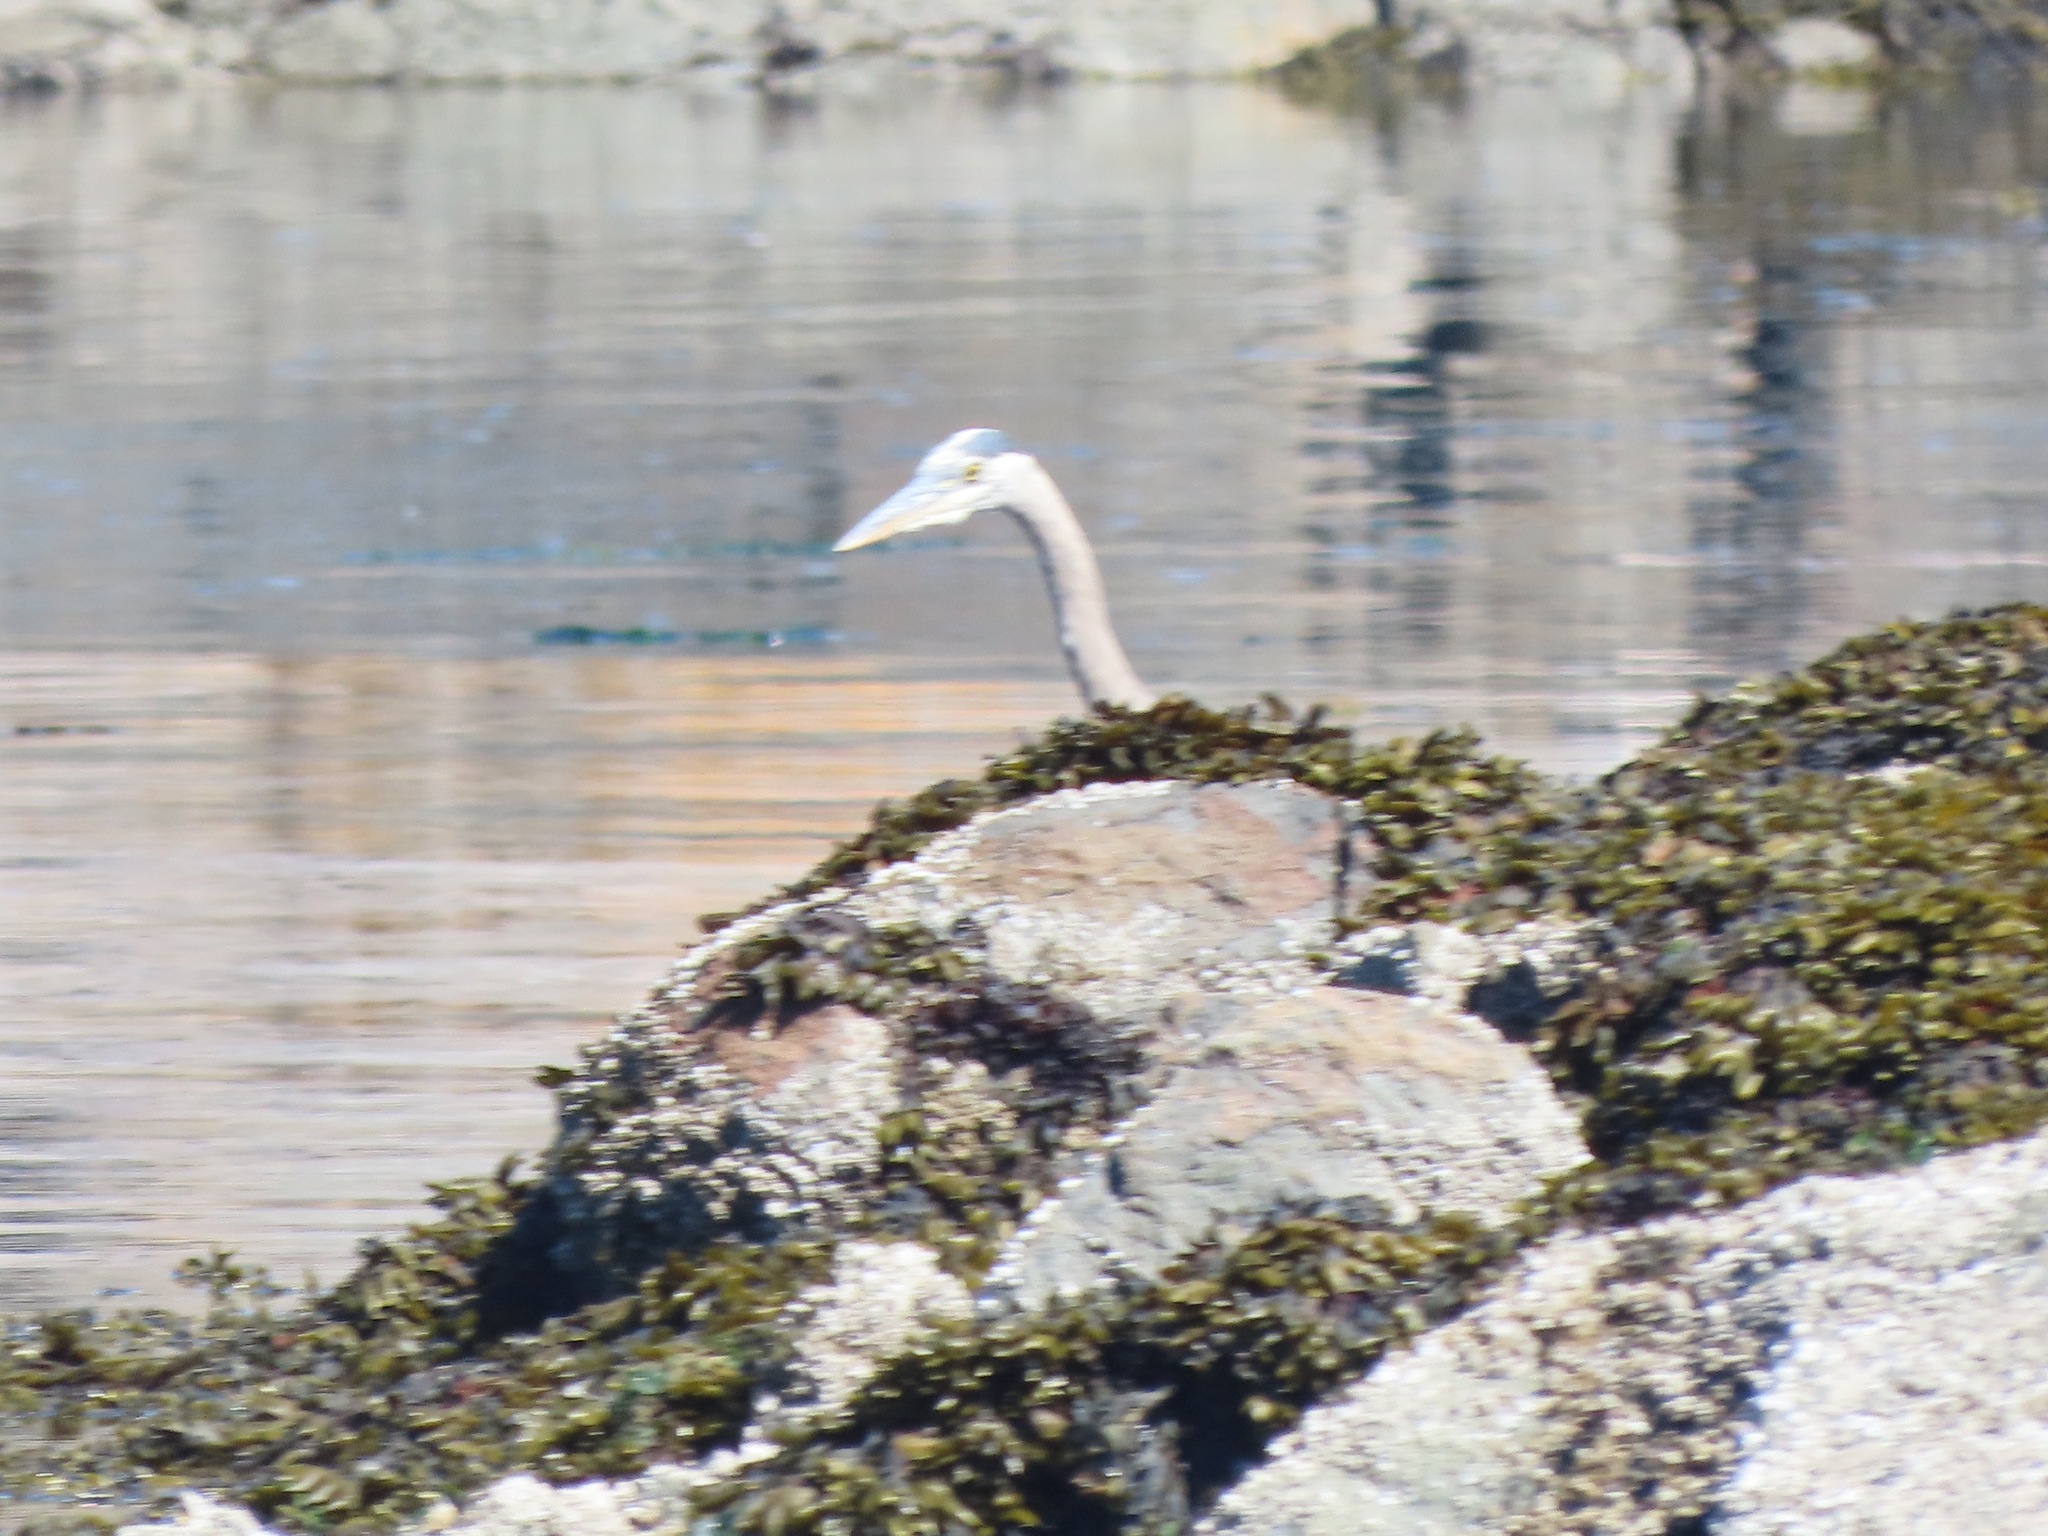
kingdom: Animalia
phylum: Chordata
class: Aves
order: Pelecaniformes
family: Ardeidae
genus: Ardea
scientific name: Ardea herodias
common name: Great blue heron
